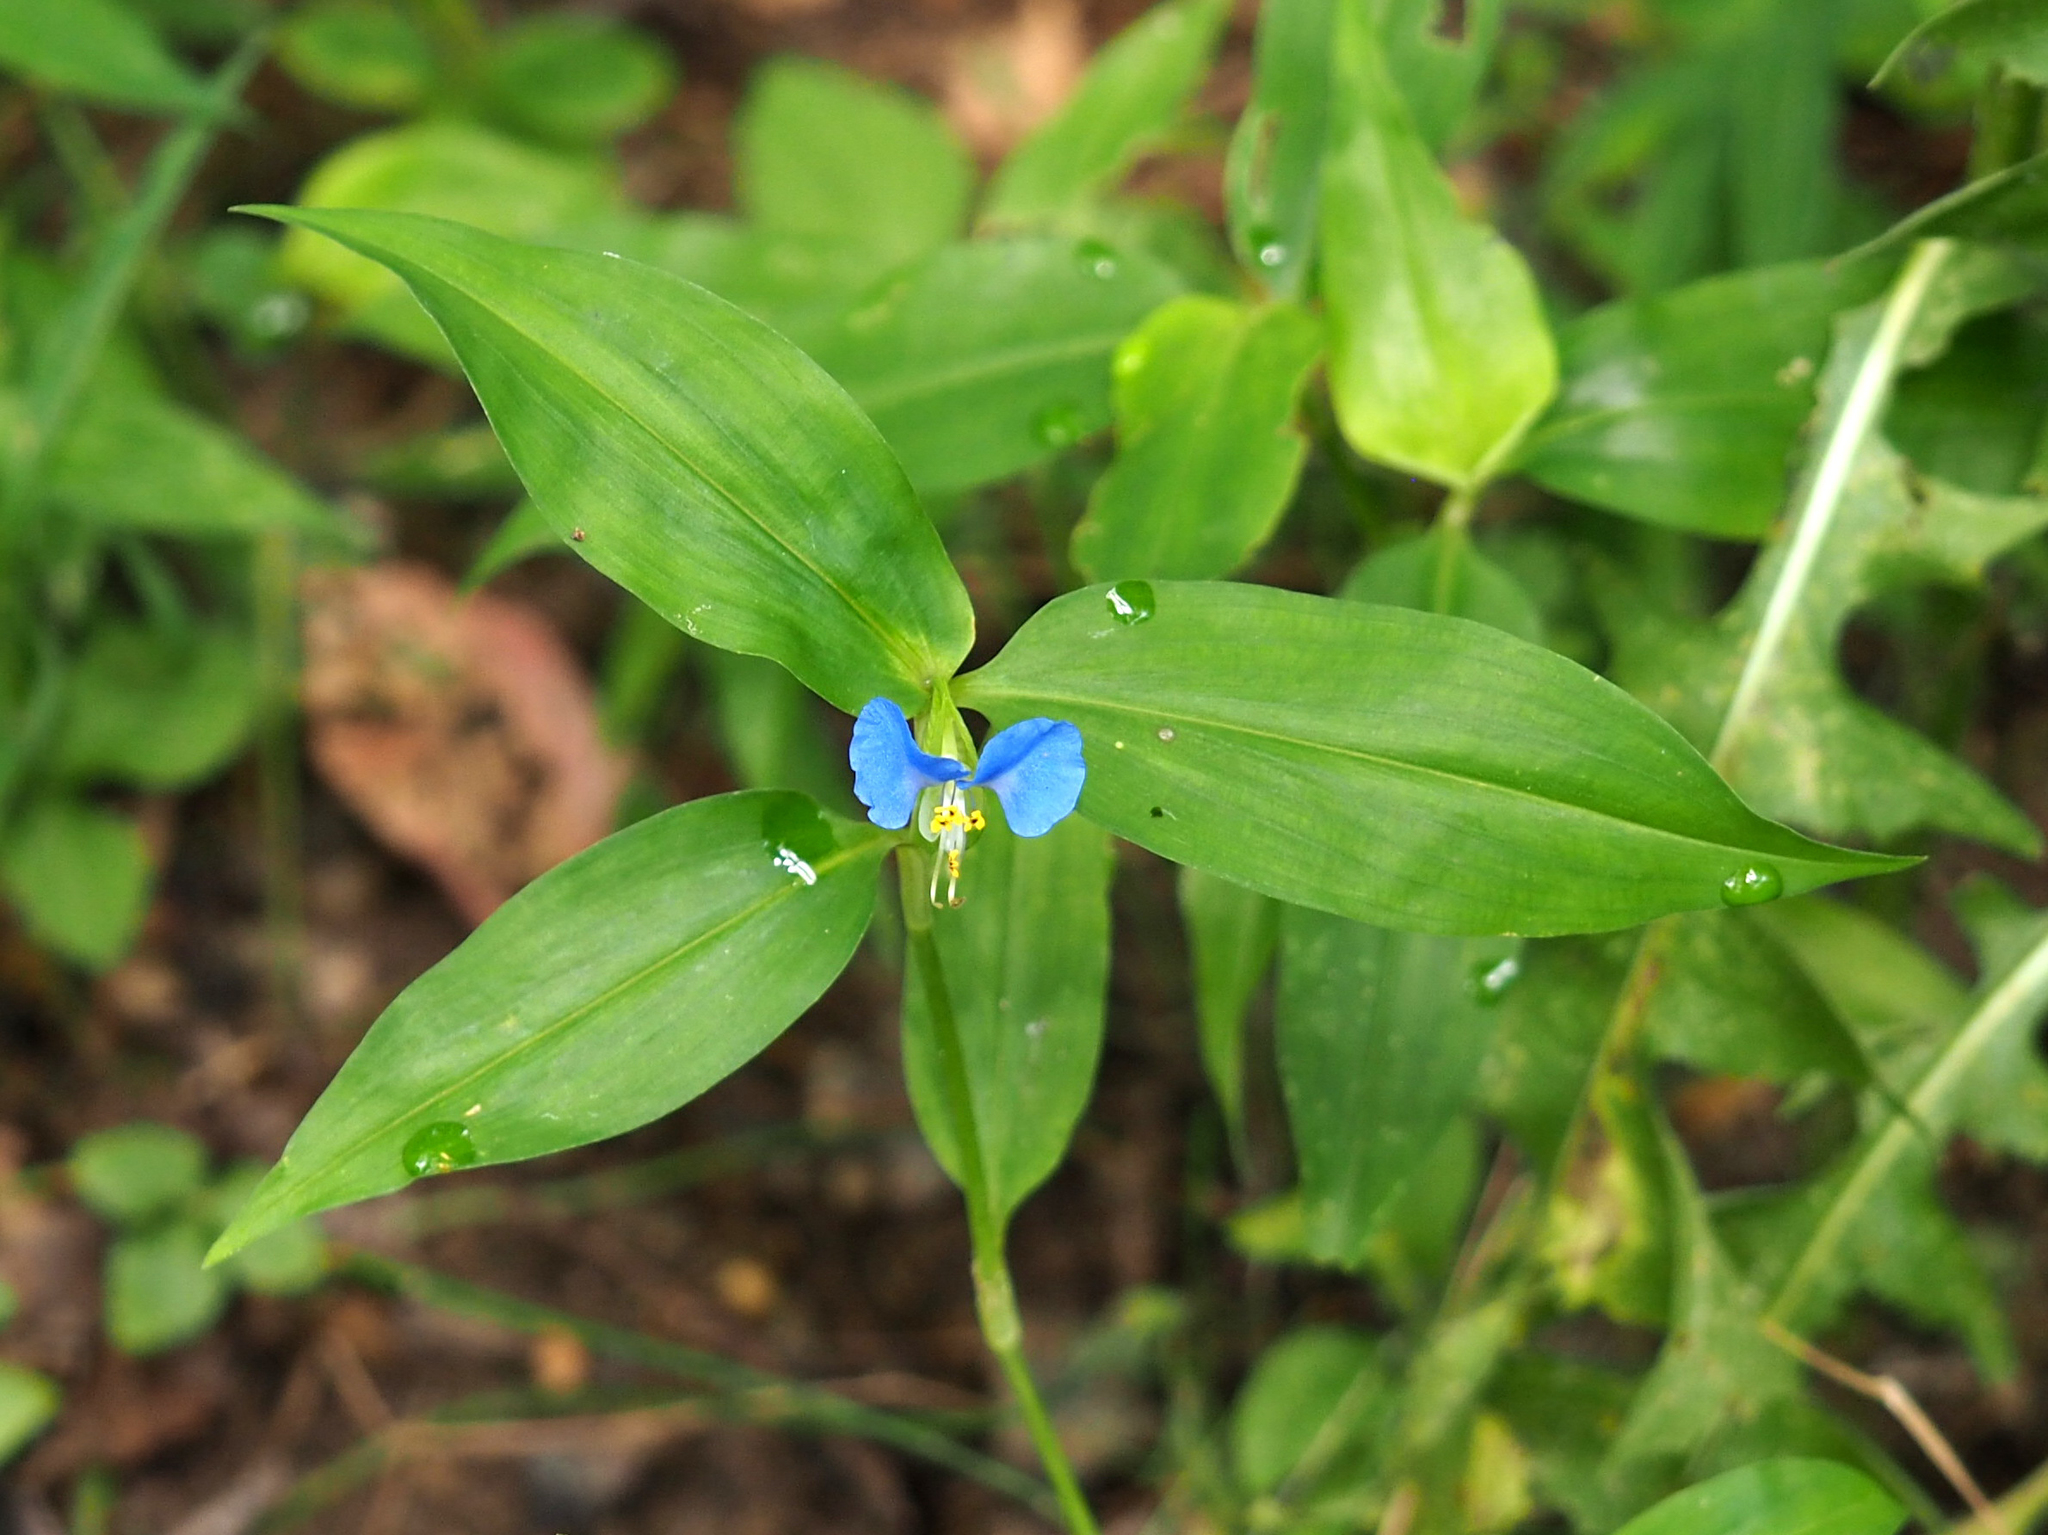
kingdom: Plantae
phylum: Tracheophyta
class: Liliopsida
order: Commelinales
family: Commelinaceae
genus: Commelina
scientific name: Commelina communis
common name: Asiatic dayflower
